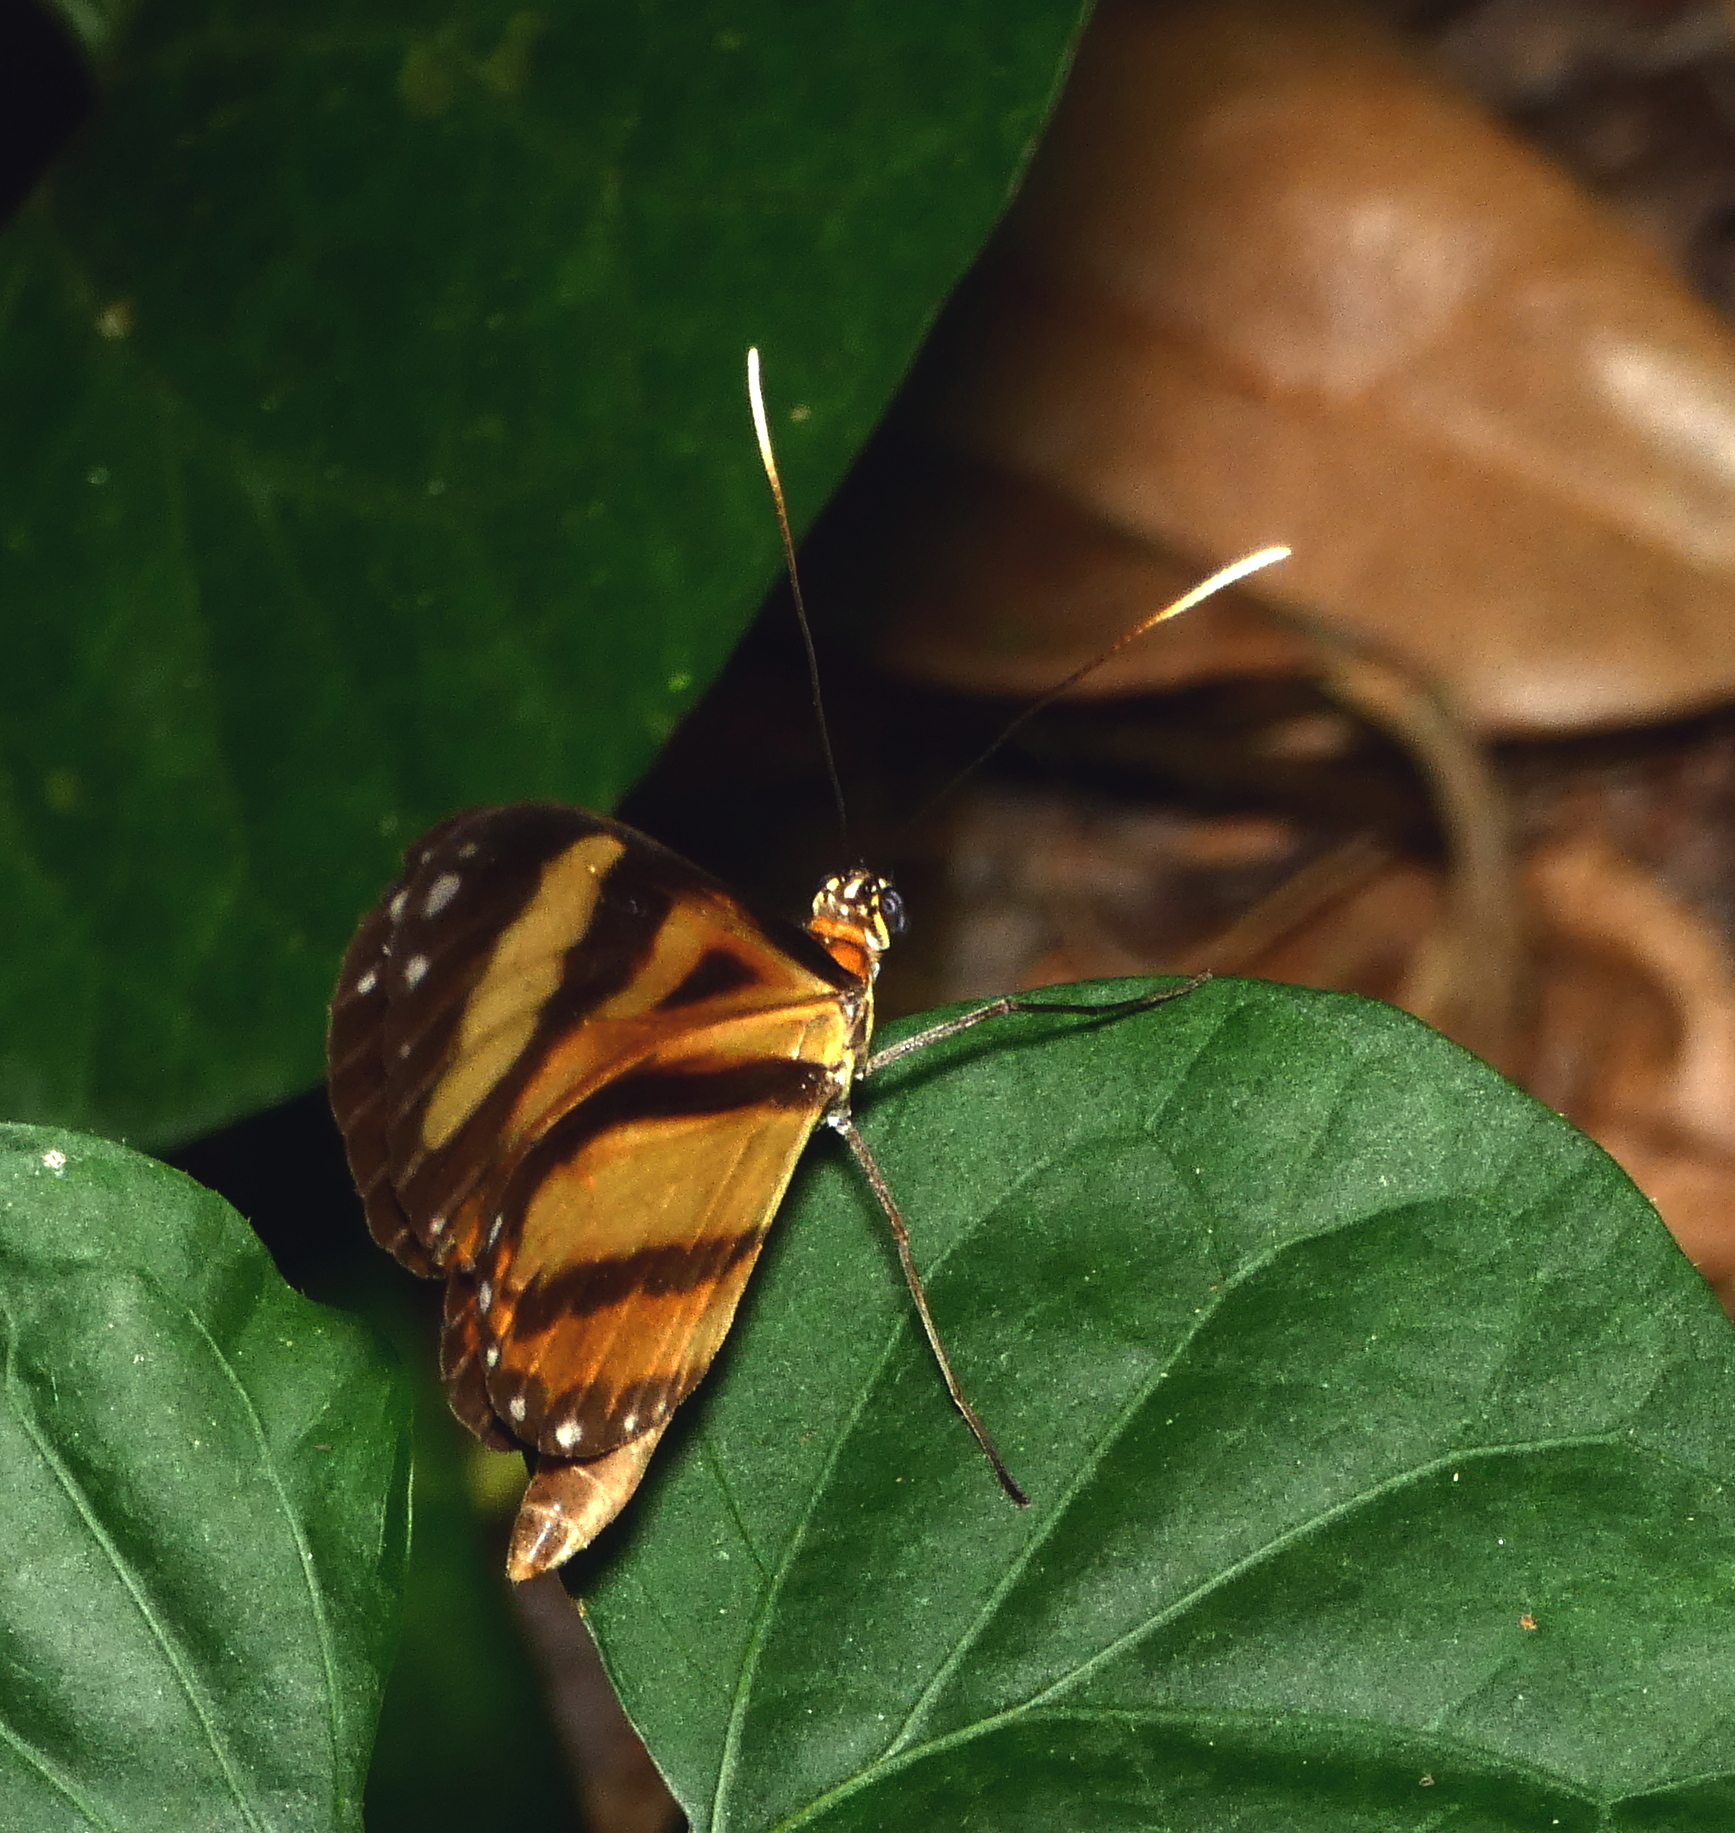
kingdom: Animalia
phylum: Arthropoda
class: Insecta
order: Lepidoptera
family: Nymphalidae
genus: Hypothyris
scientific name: Hypothyris ninonia
